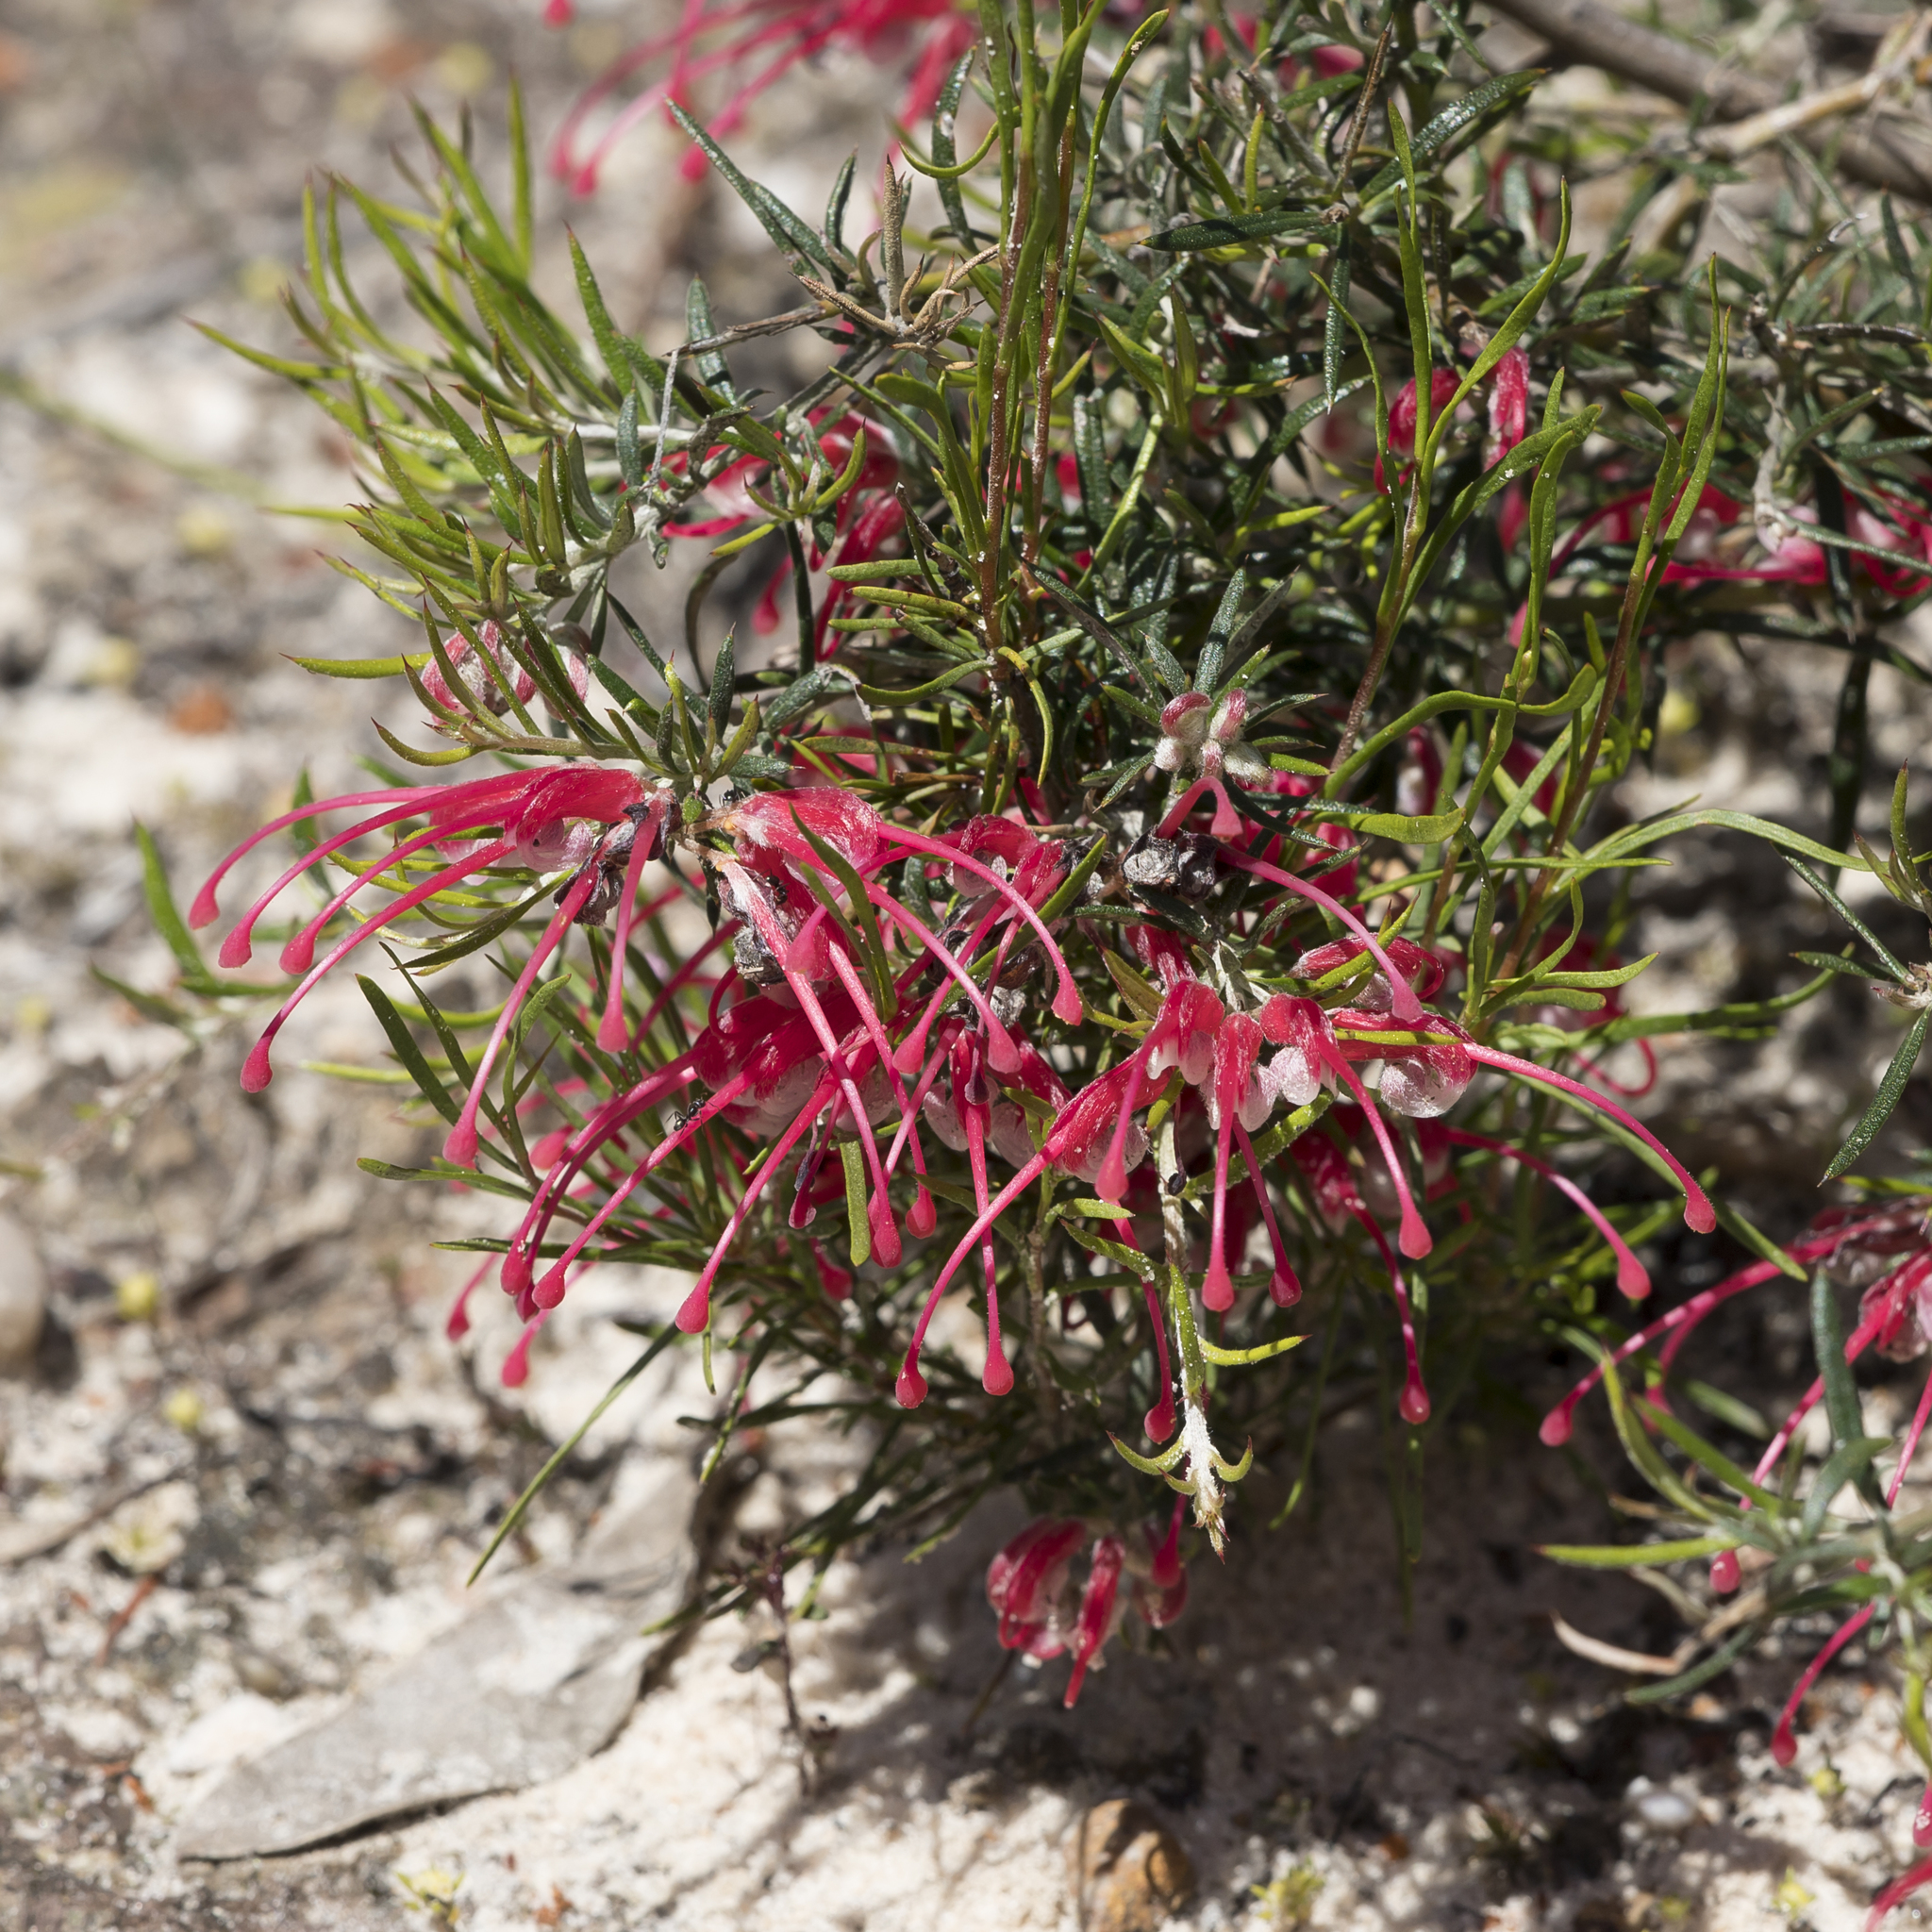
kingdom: Plantae
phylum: Tracheophyta
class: Magnoliopsida
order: Proteales
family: Proteaceae
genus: Grevillea
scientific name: Grevillea lavandulacea
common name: Lavender grevillea
